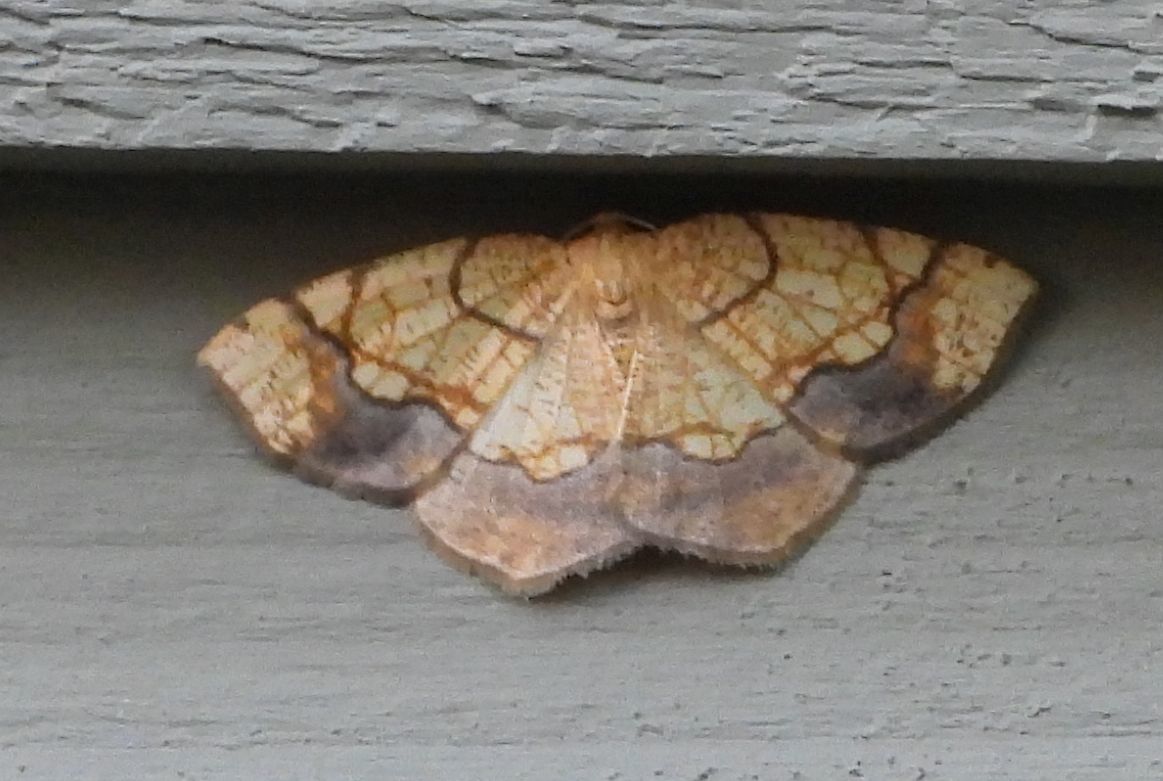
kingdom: Animalia
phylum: Arthropoda
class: Insecta
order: Lepidoptera
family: Geometridae
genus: Nematocampa
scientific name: Nematocampa resistaria
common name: Horned spanworm moth
